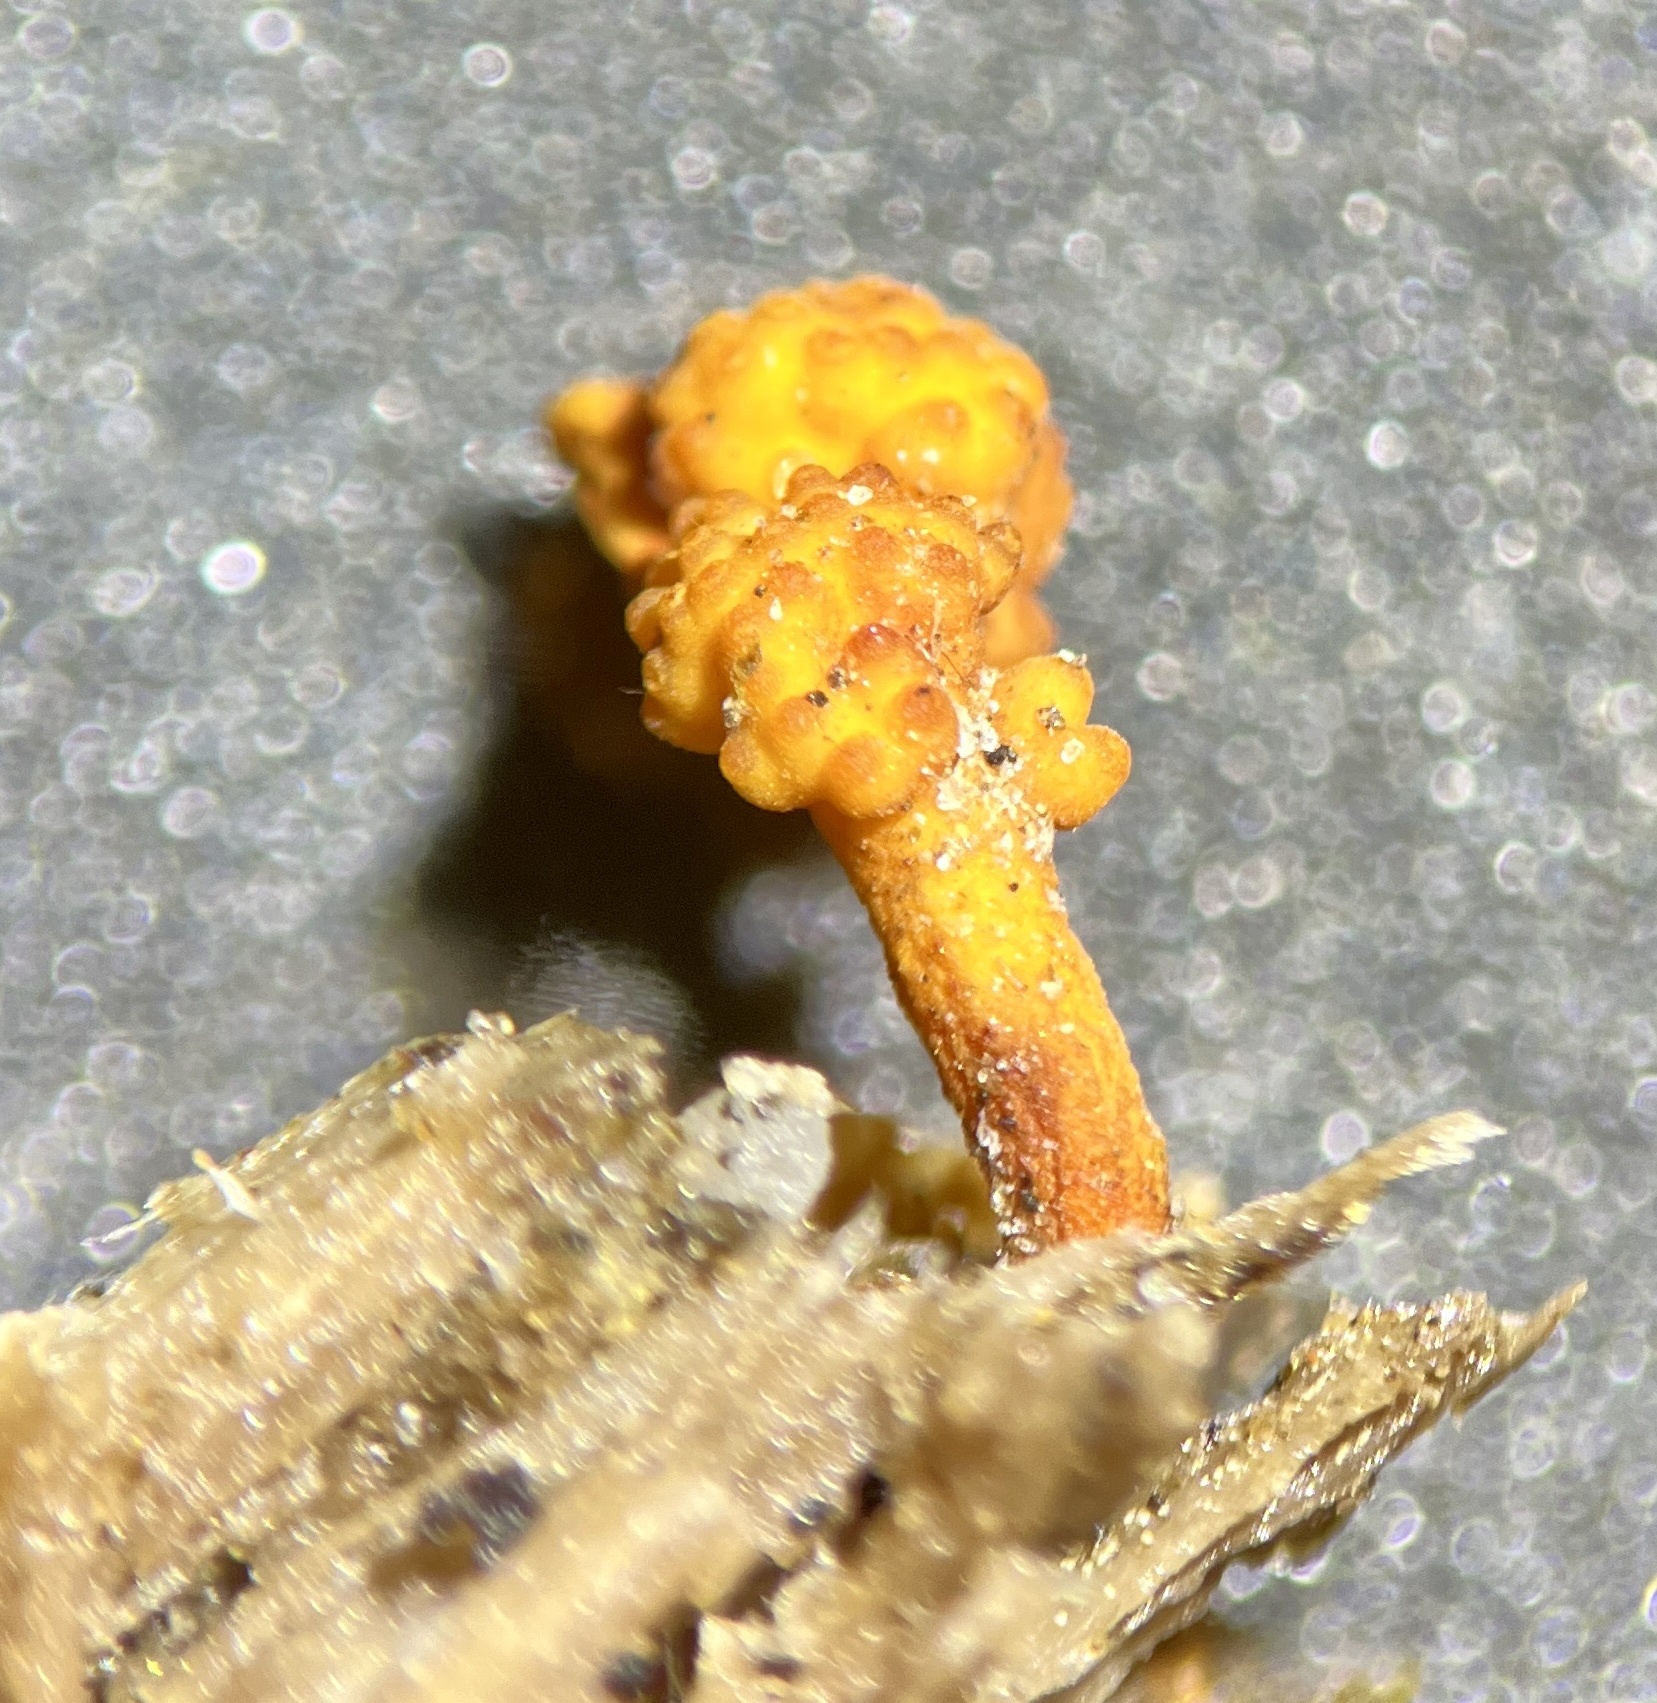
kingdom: Fungi
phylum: Ascomycota
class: Sordariomycetes
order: Hypocreales
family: Ophiocordycipitaceae
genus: Ophiocordyceps
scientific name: Ophiocordyceps variabilis
